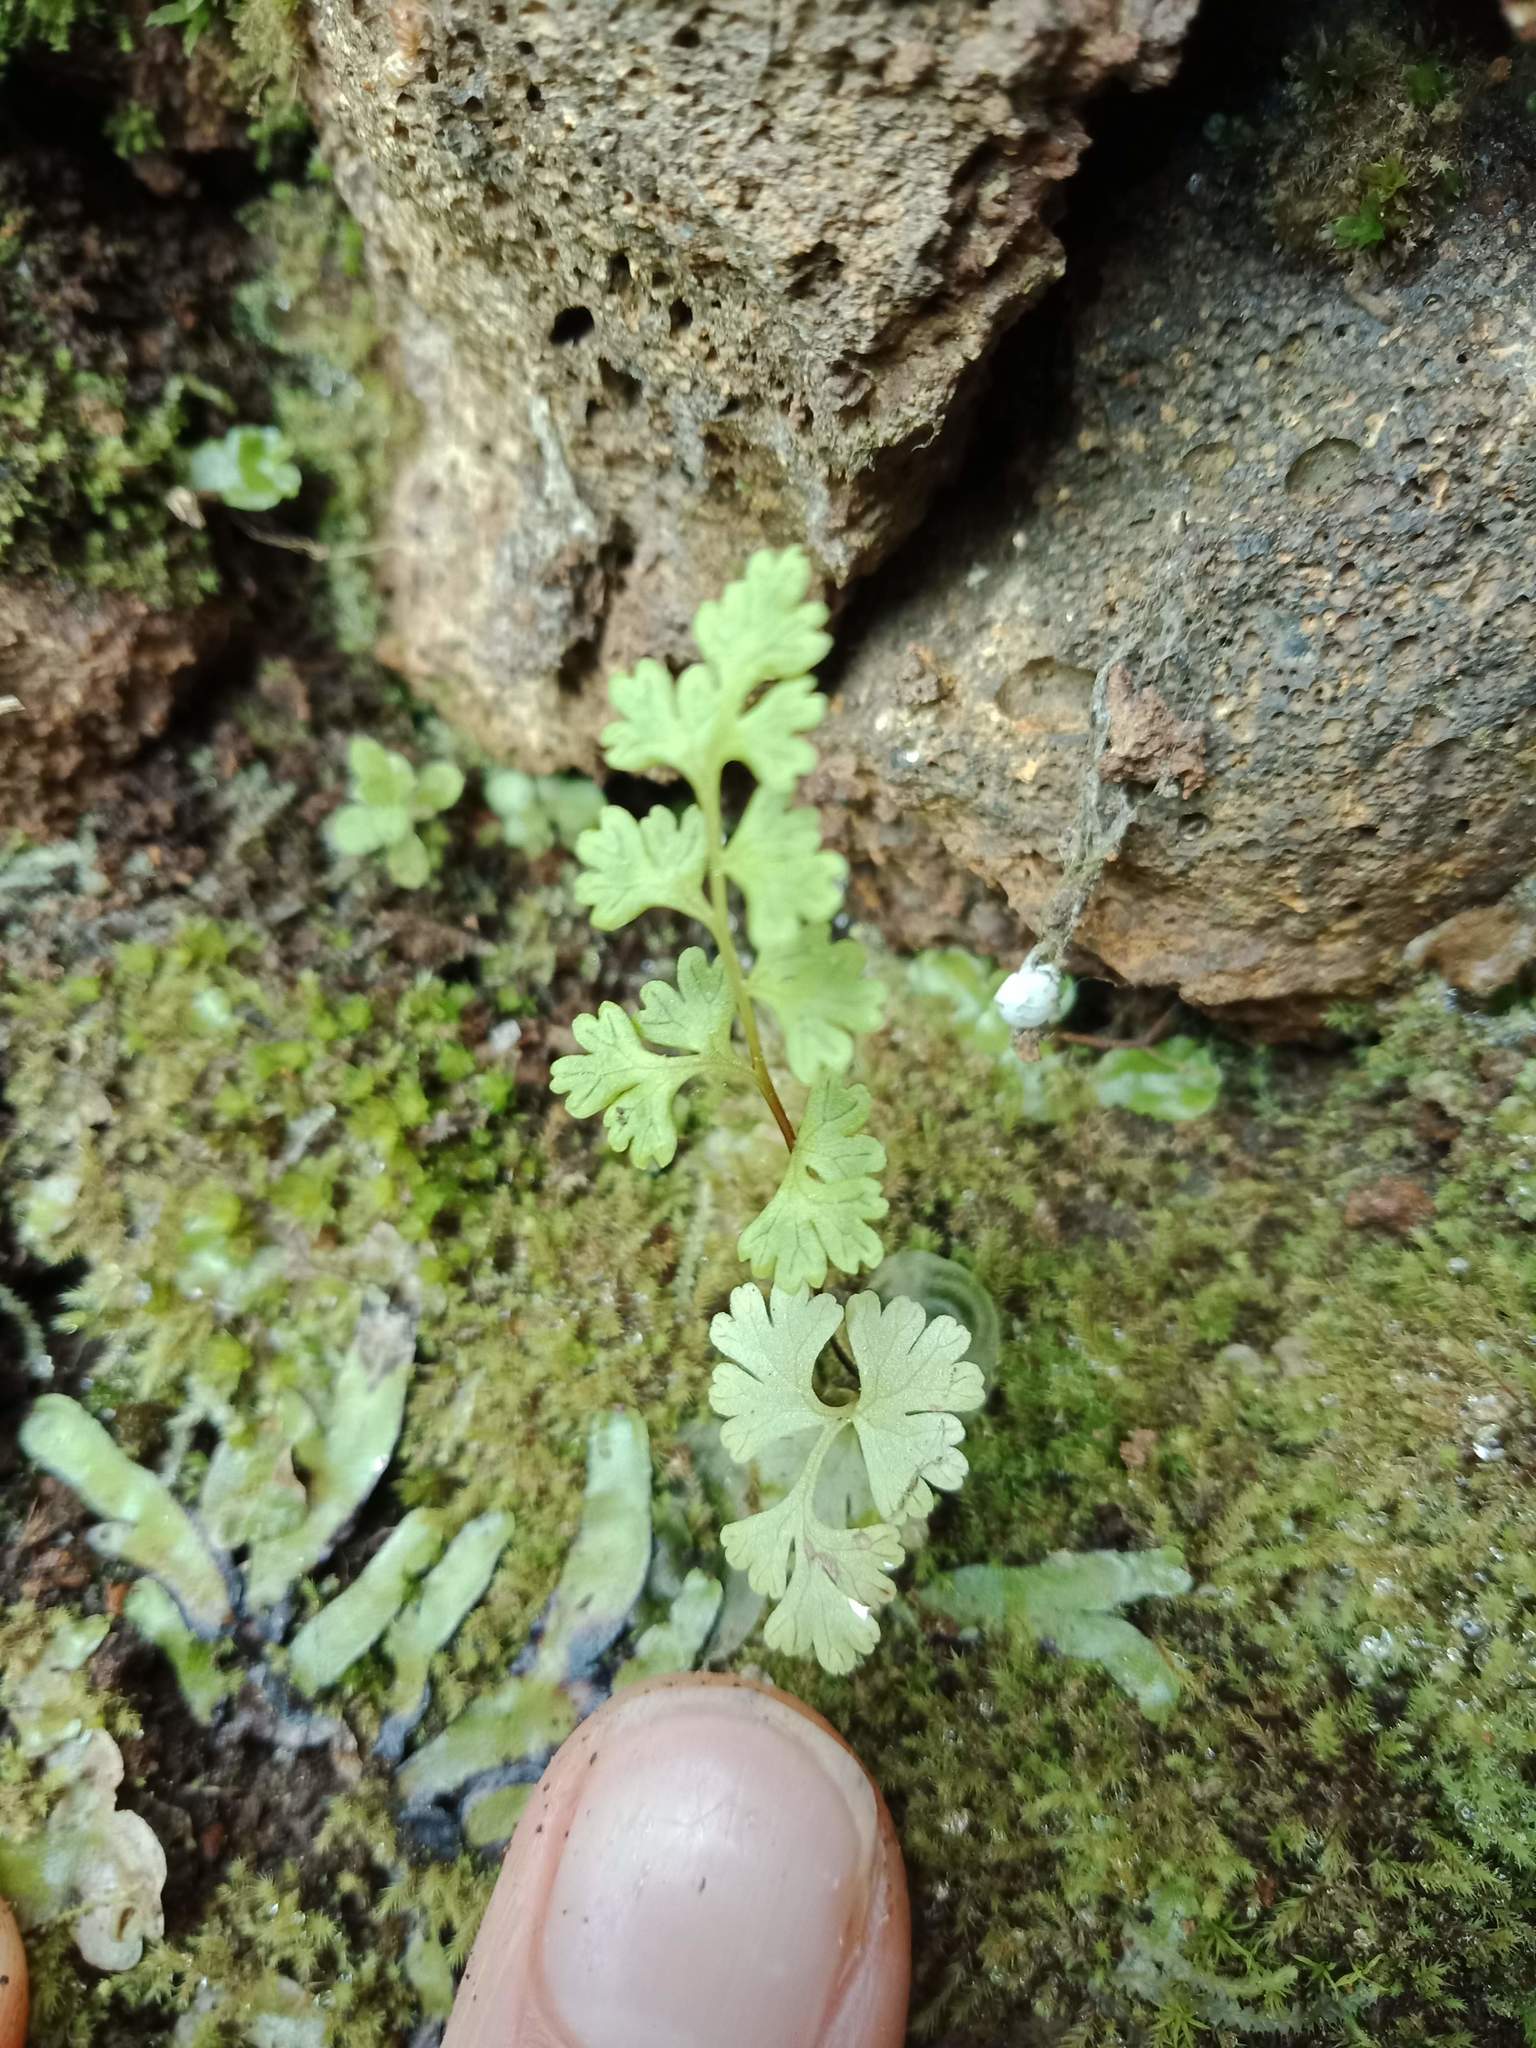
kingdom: Plantae
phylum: Tracheophyta
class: Polypodiopsida
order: Polypodiales
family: Pteridaceae
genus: Anogramma
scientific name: Anogramma leptophylla
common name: Jersey fern
